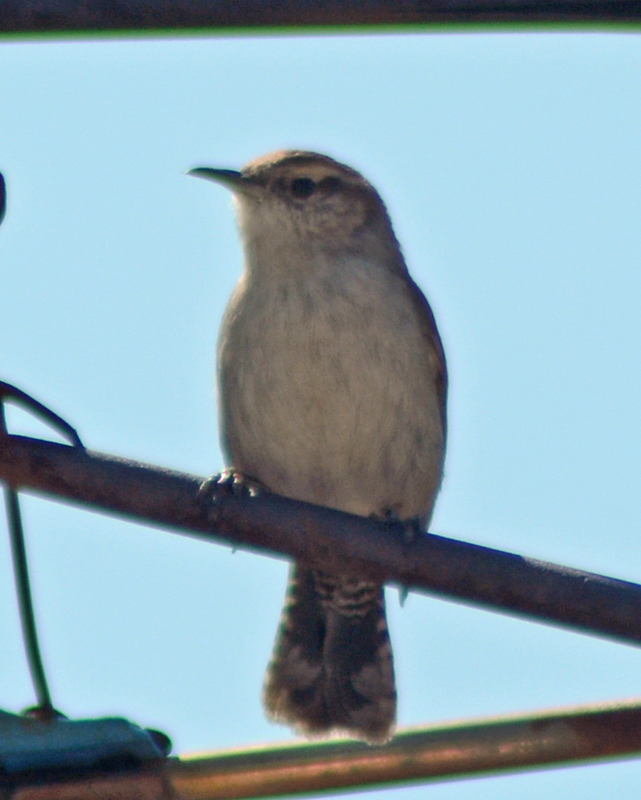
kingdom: Animalia
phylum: Chordata
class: Aves
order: Passeriformes
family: Troglodytidae
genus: Thryomanes
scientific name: Thryomanes bewickii
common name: Bewick's wren
